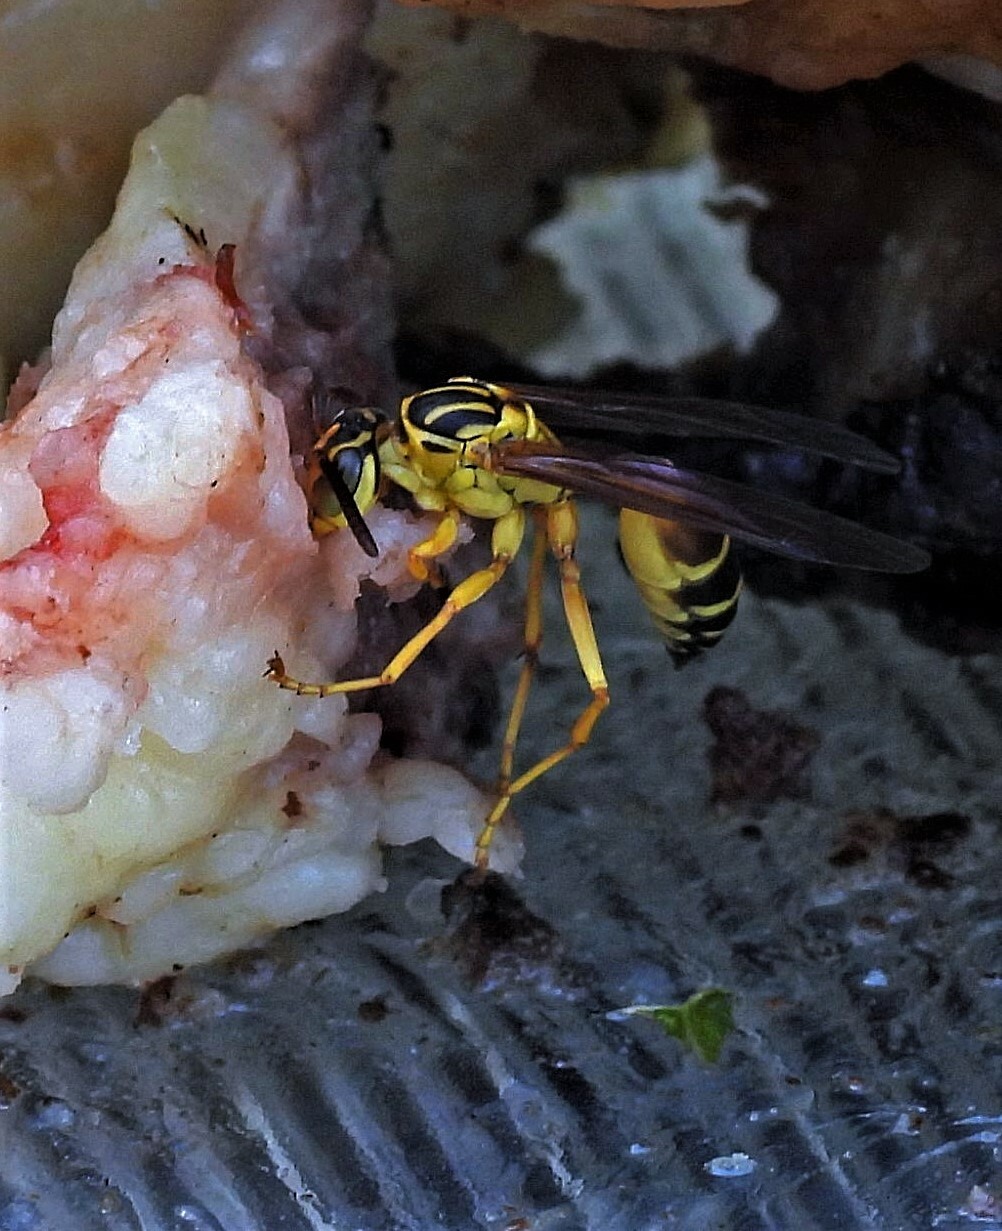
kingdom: Animalia
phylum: Arthropoda
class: Insecta
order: Hymenoptera
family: Vespidae
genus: Agelaia
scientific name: Agelaia
